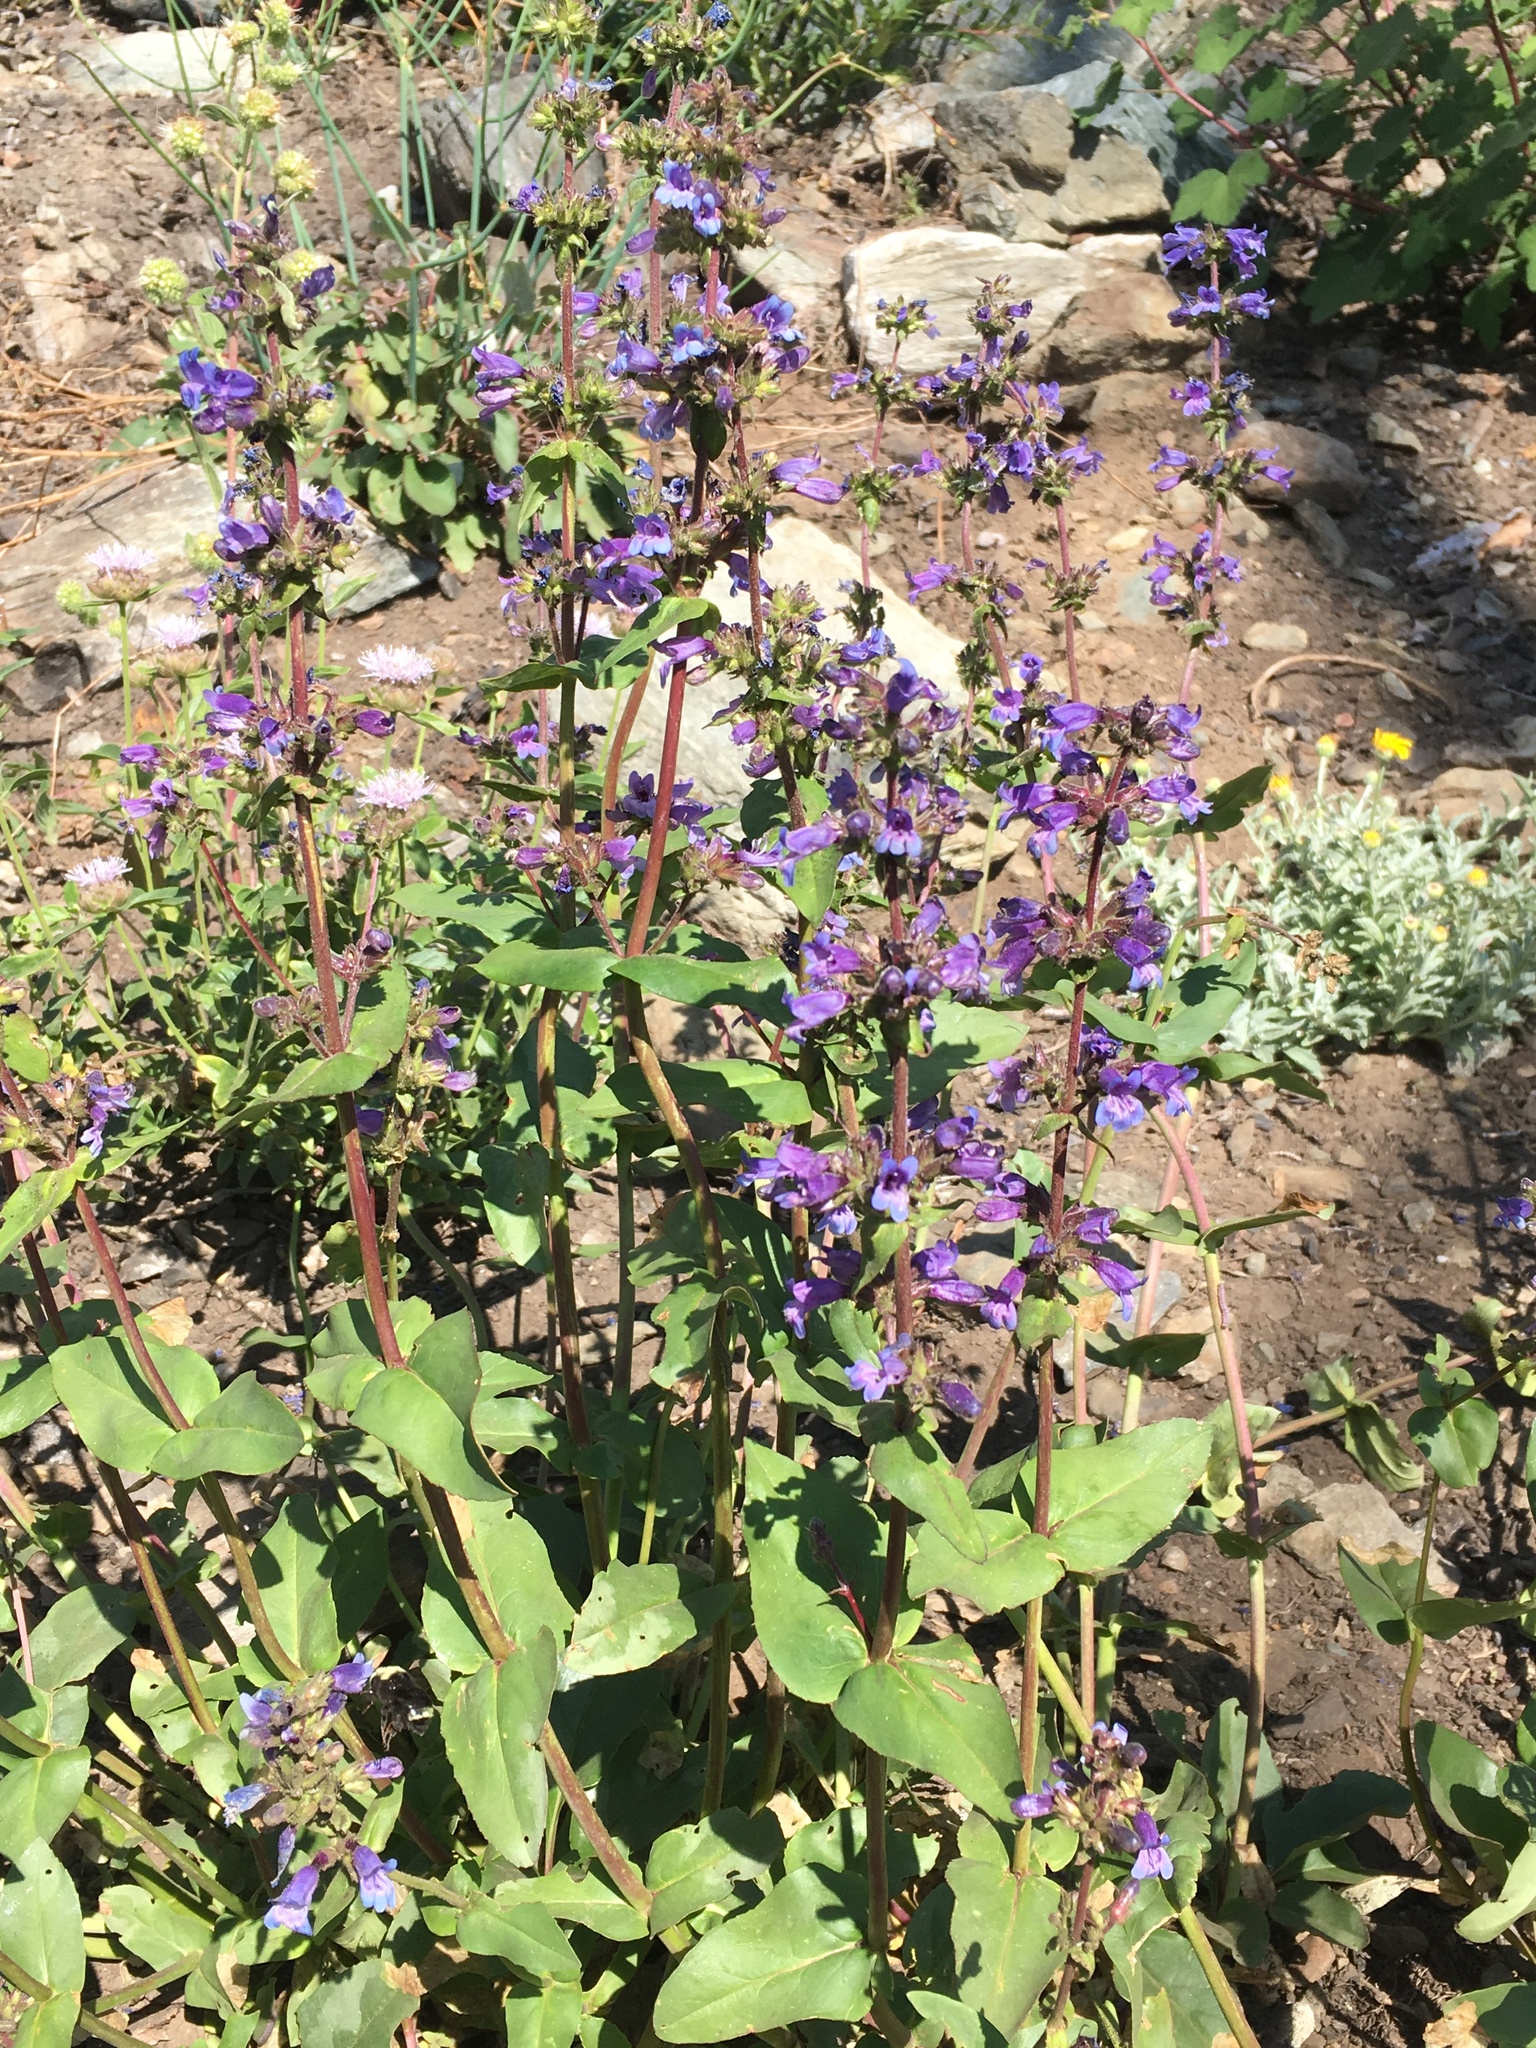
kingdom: Plantae
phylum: Tracheophyta
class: Magnoliopsida
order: Lamiales
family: Plantaginaceae
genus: Penstemon
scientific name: Penstemon anguineus
